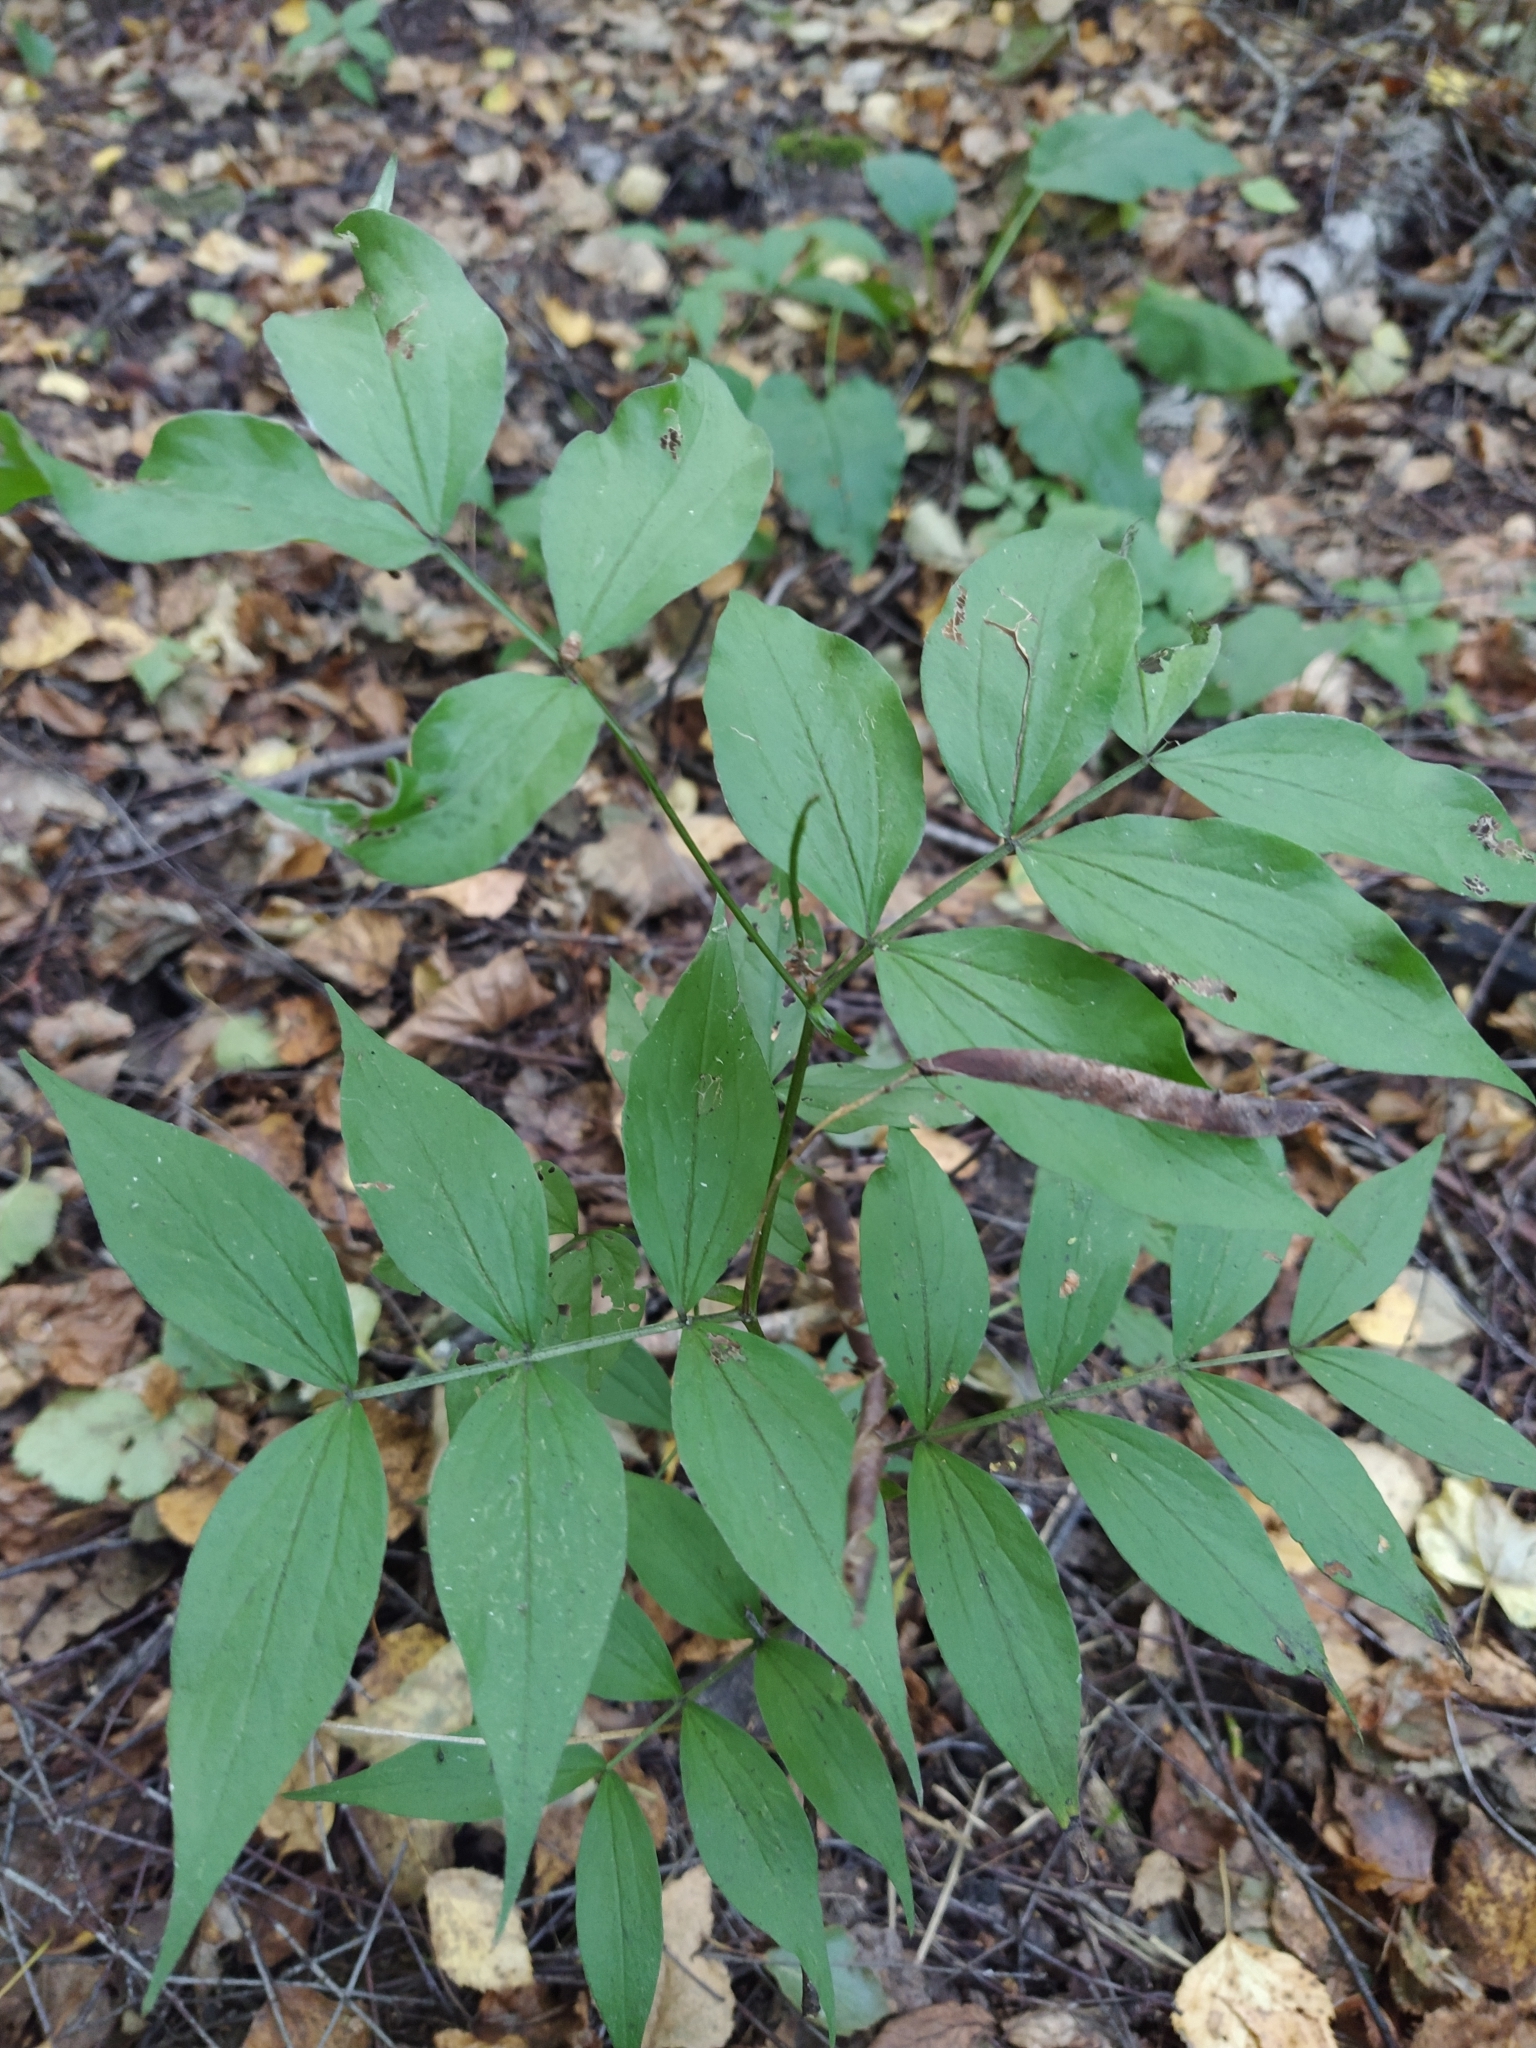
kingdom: Plantae
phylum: Tracheophyta
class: Magnoliopsida
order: Fabales
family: Fabaceae
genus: Lathyrus
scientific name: Lathyrus vernus
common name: Spring pea
